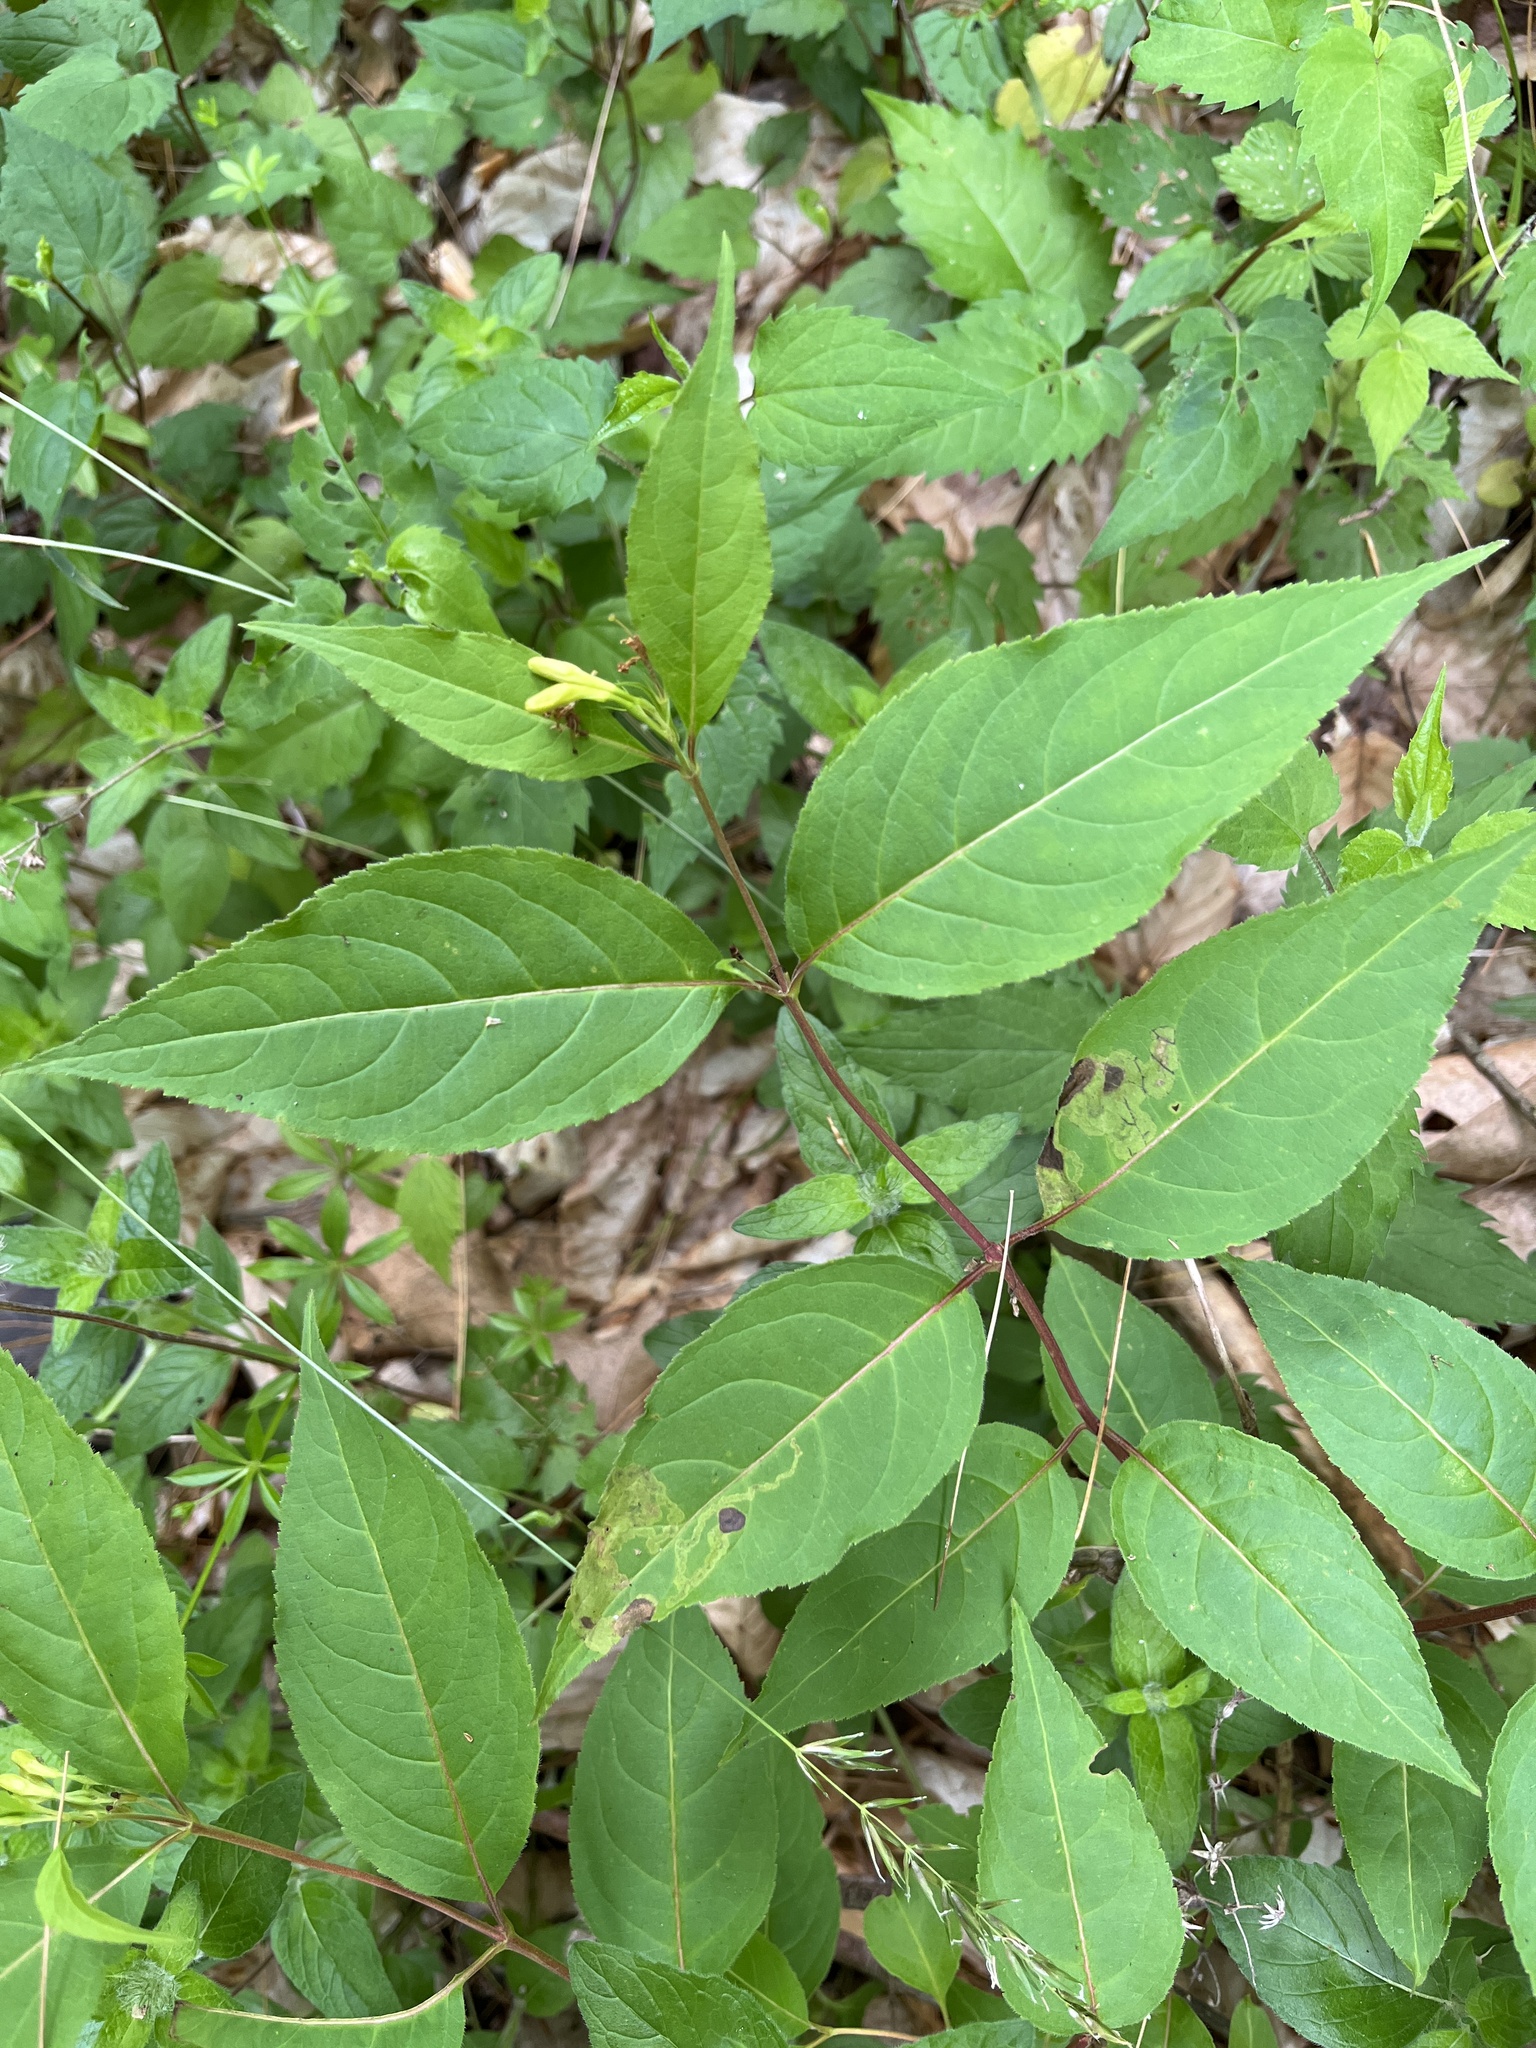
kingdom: Plantae
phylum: Tracheophyta
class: Magnoliopsida
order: Dipsacales
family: Caprifoliaceae
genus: Diervilla
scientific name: Diervilla lonicera
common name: Bush-honeysuckle
